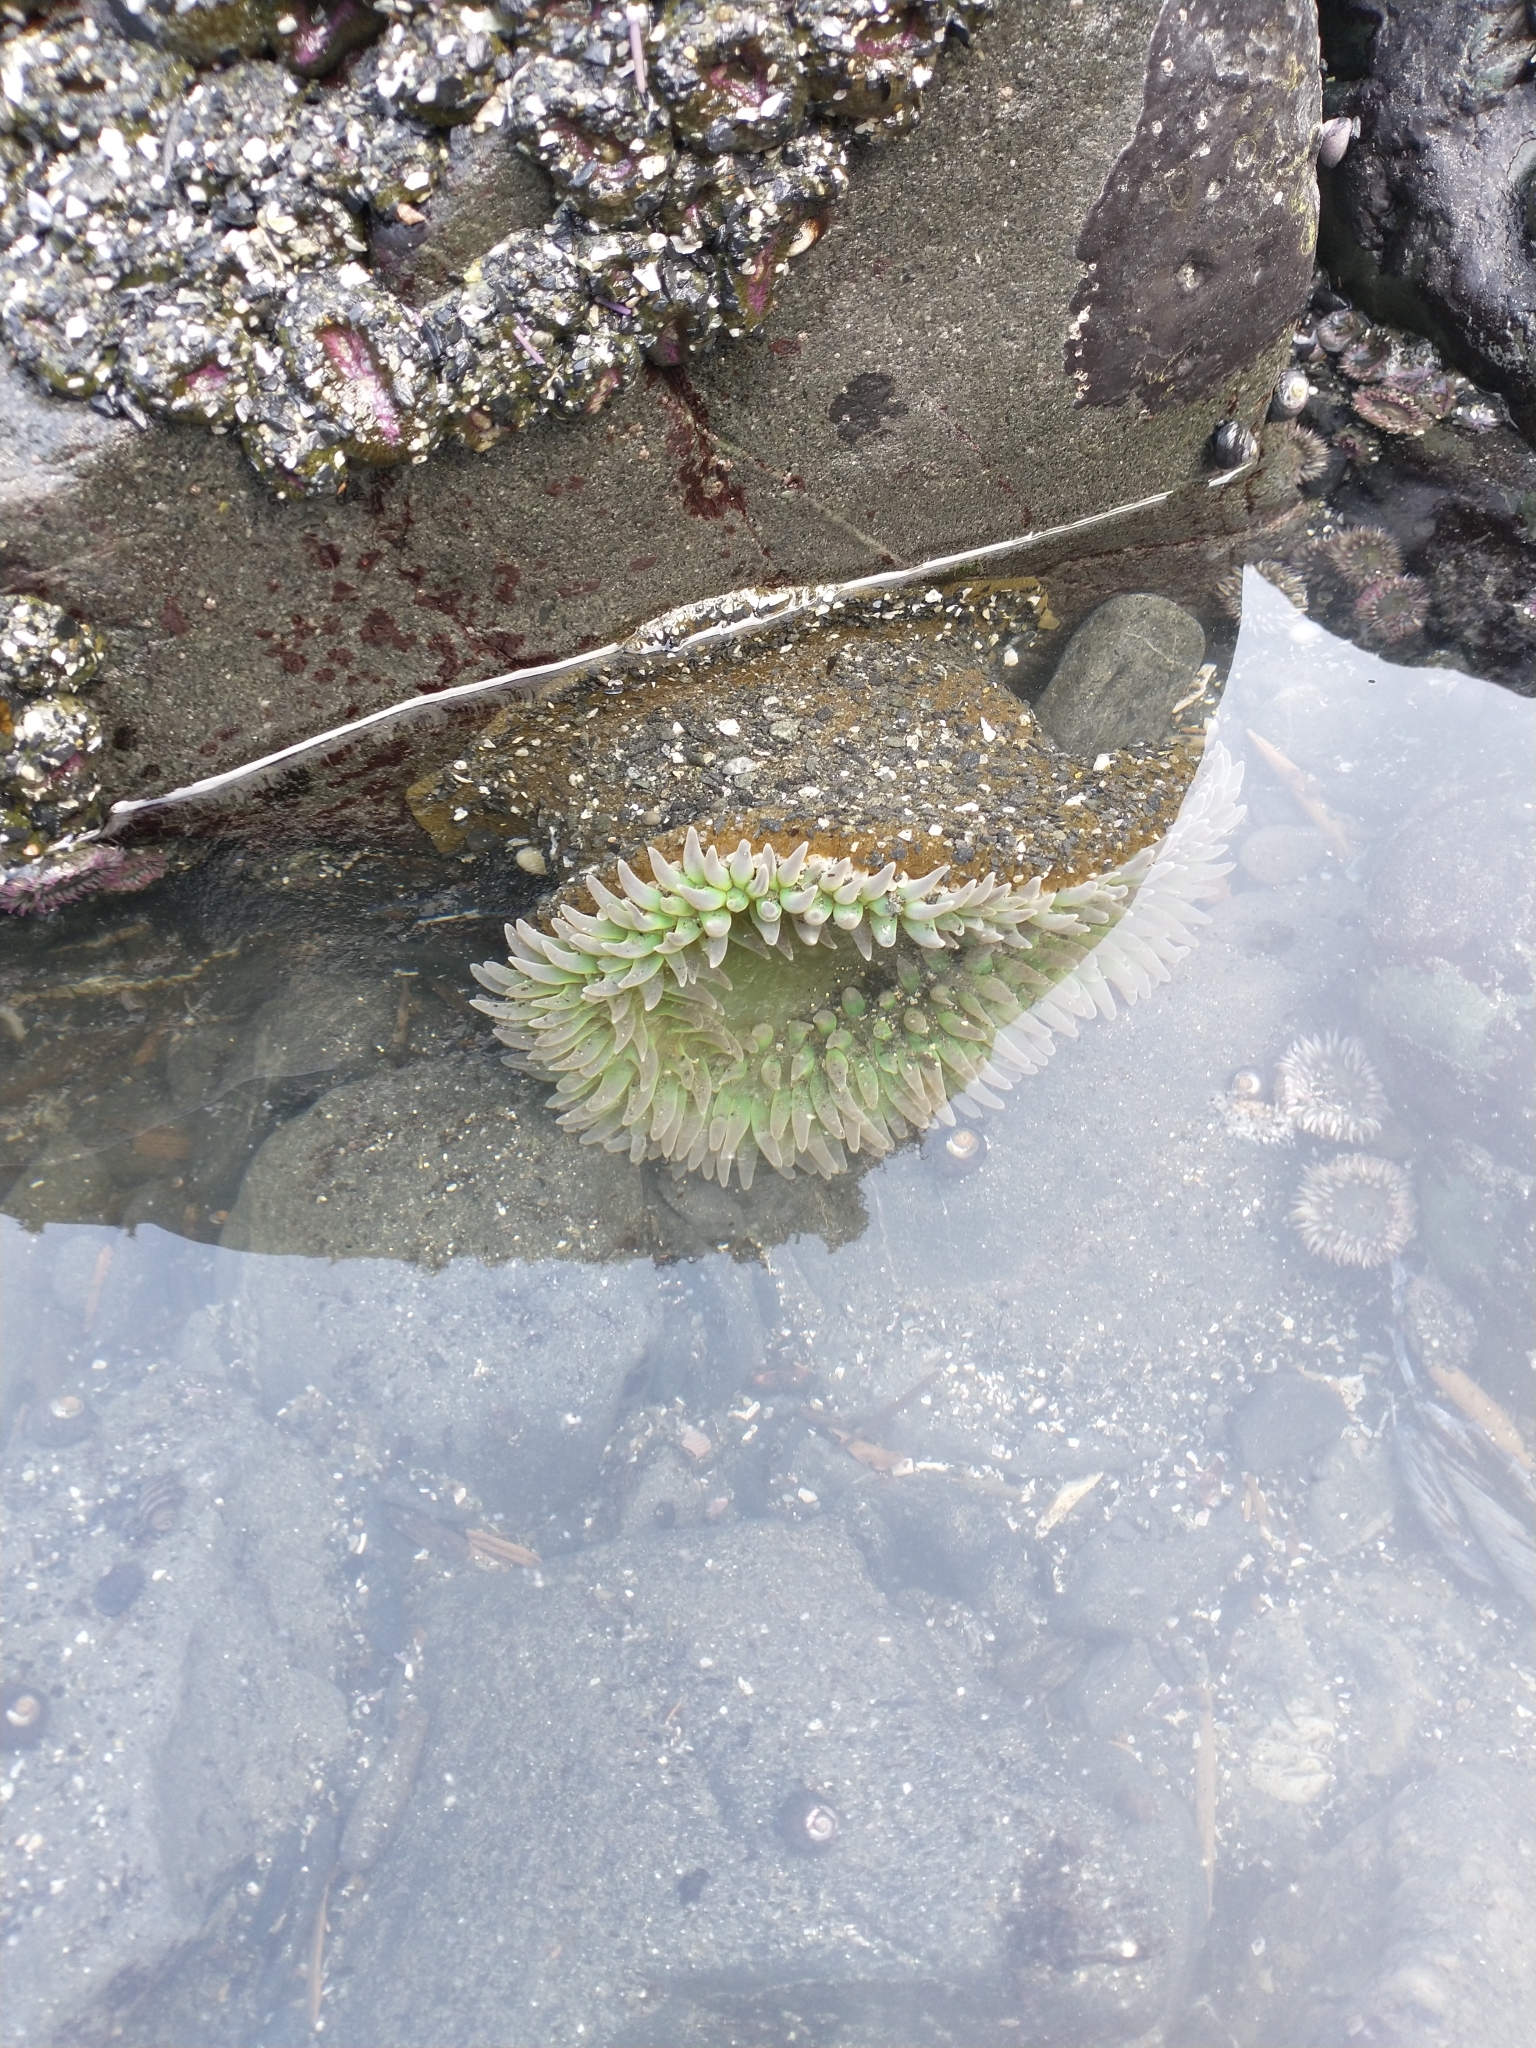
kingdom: Animalia
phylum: Cnidaria
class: Anthozoa
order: Actiniaria
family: Actiniidae
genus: Anthopleura
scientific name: Anthopleura xanthogrammica
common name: Giant green anemone
